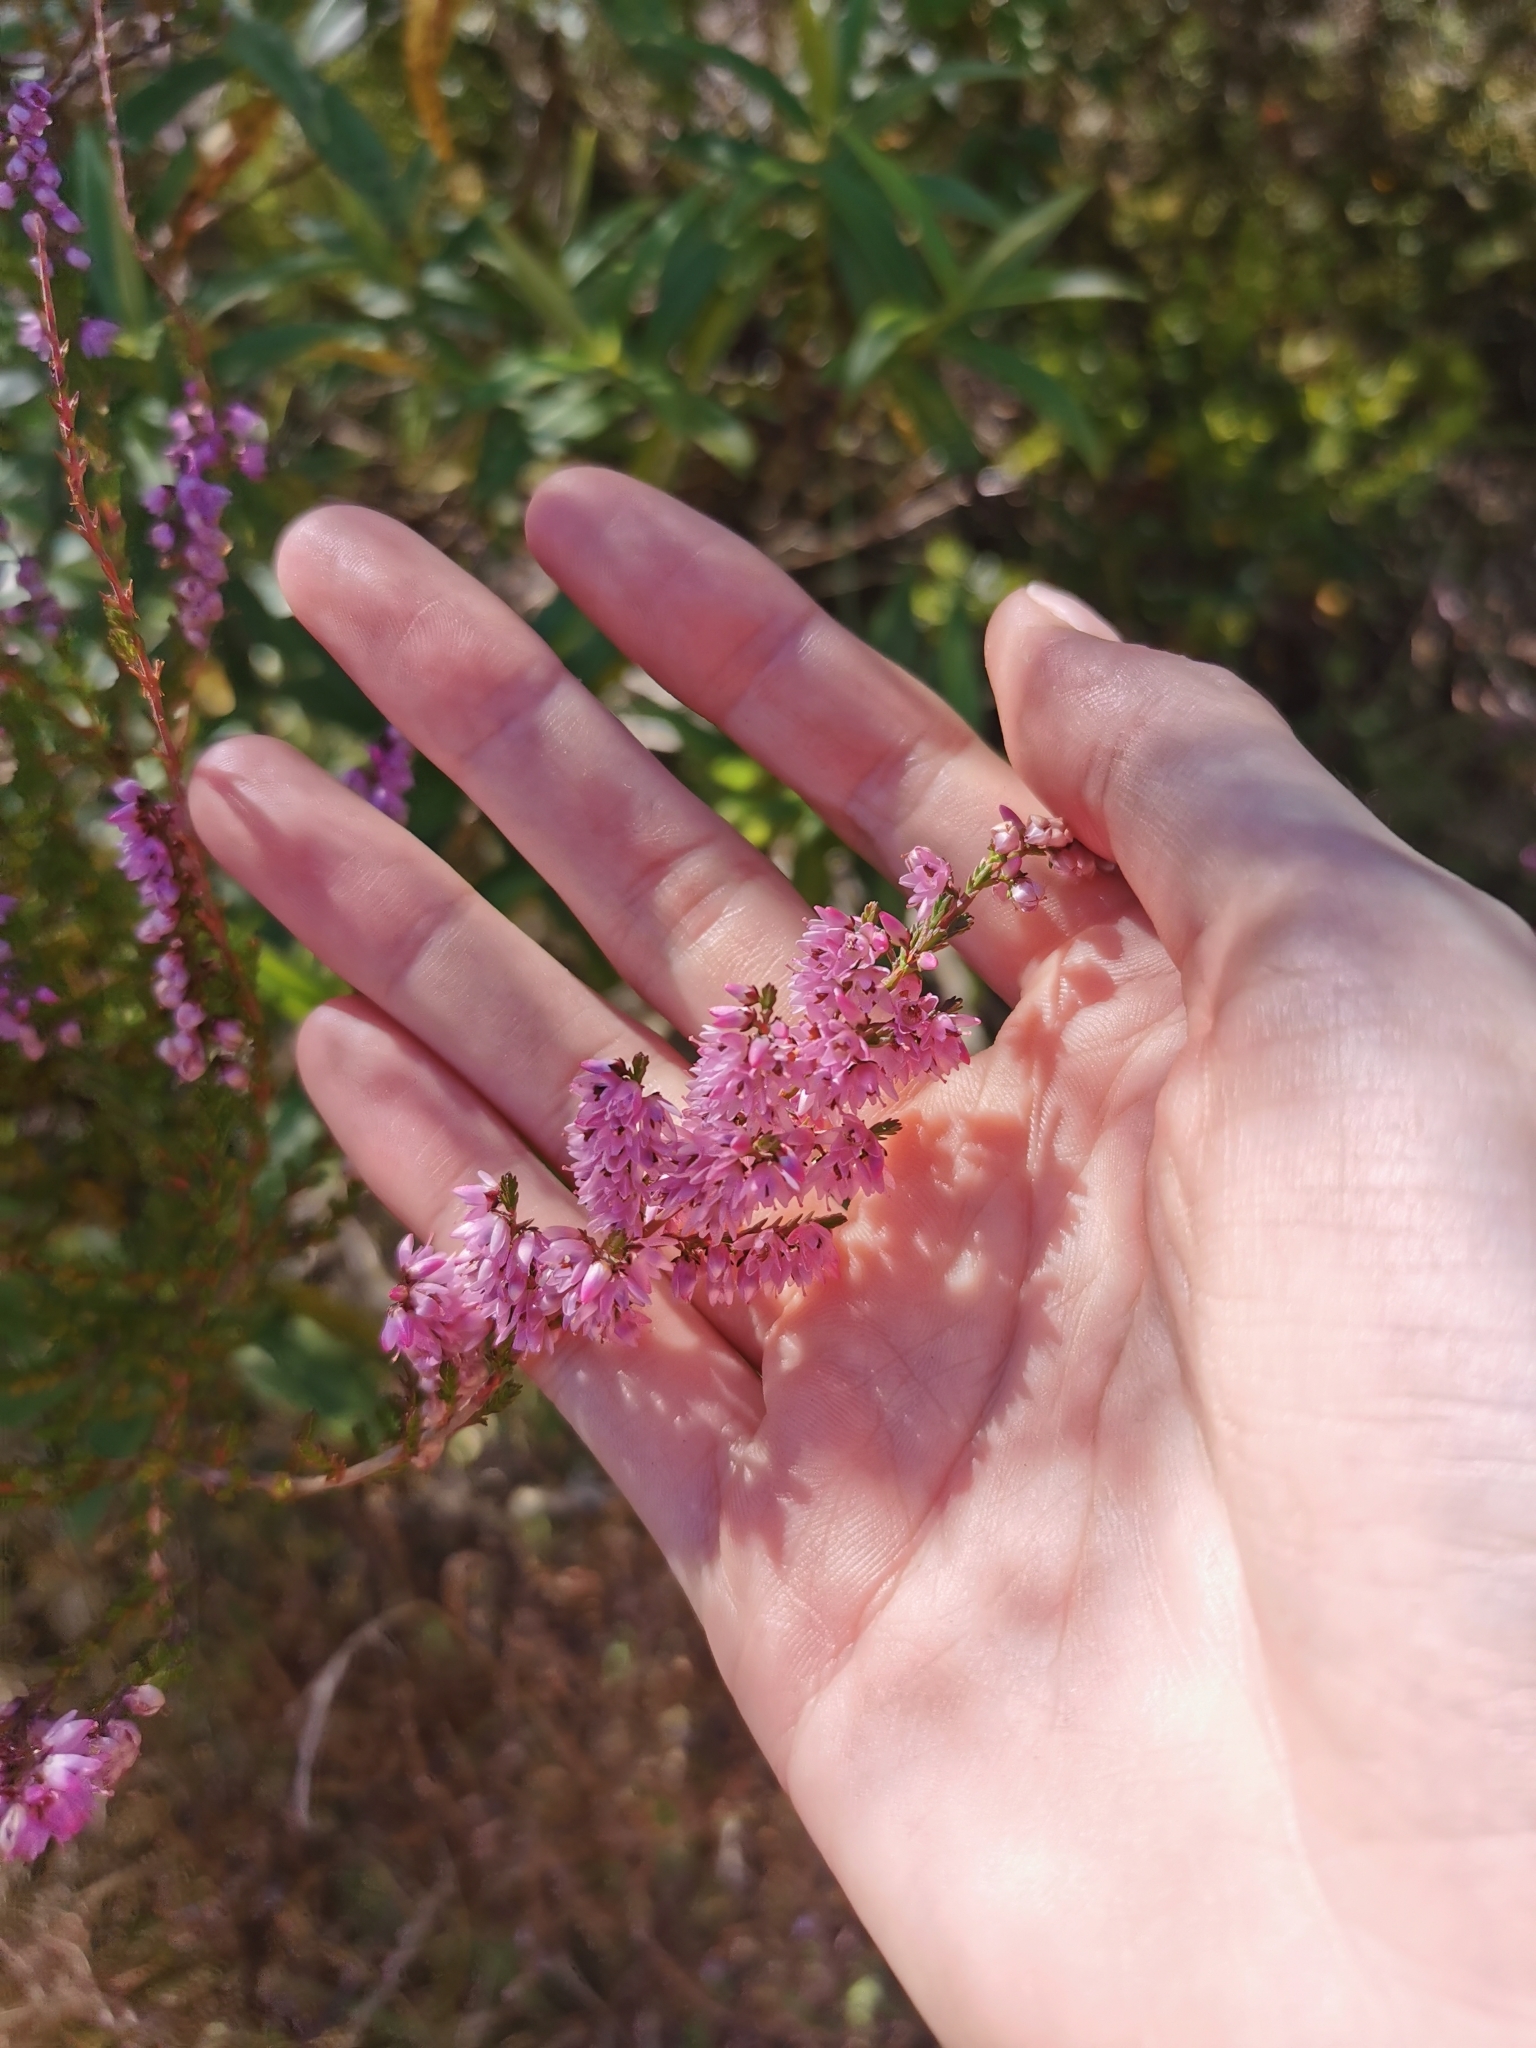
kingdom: Plantae
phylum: Tracheophyta
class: Magnoliopsida
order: Ericales
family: Ericaceae
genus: Calluna
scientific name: Calluna vulgaris
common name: Heather
